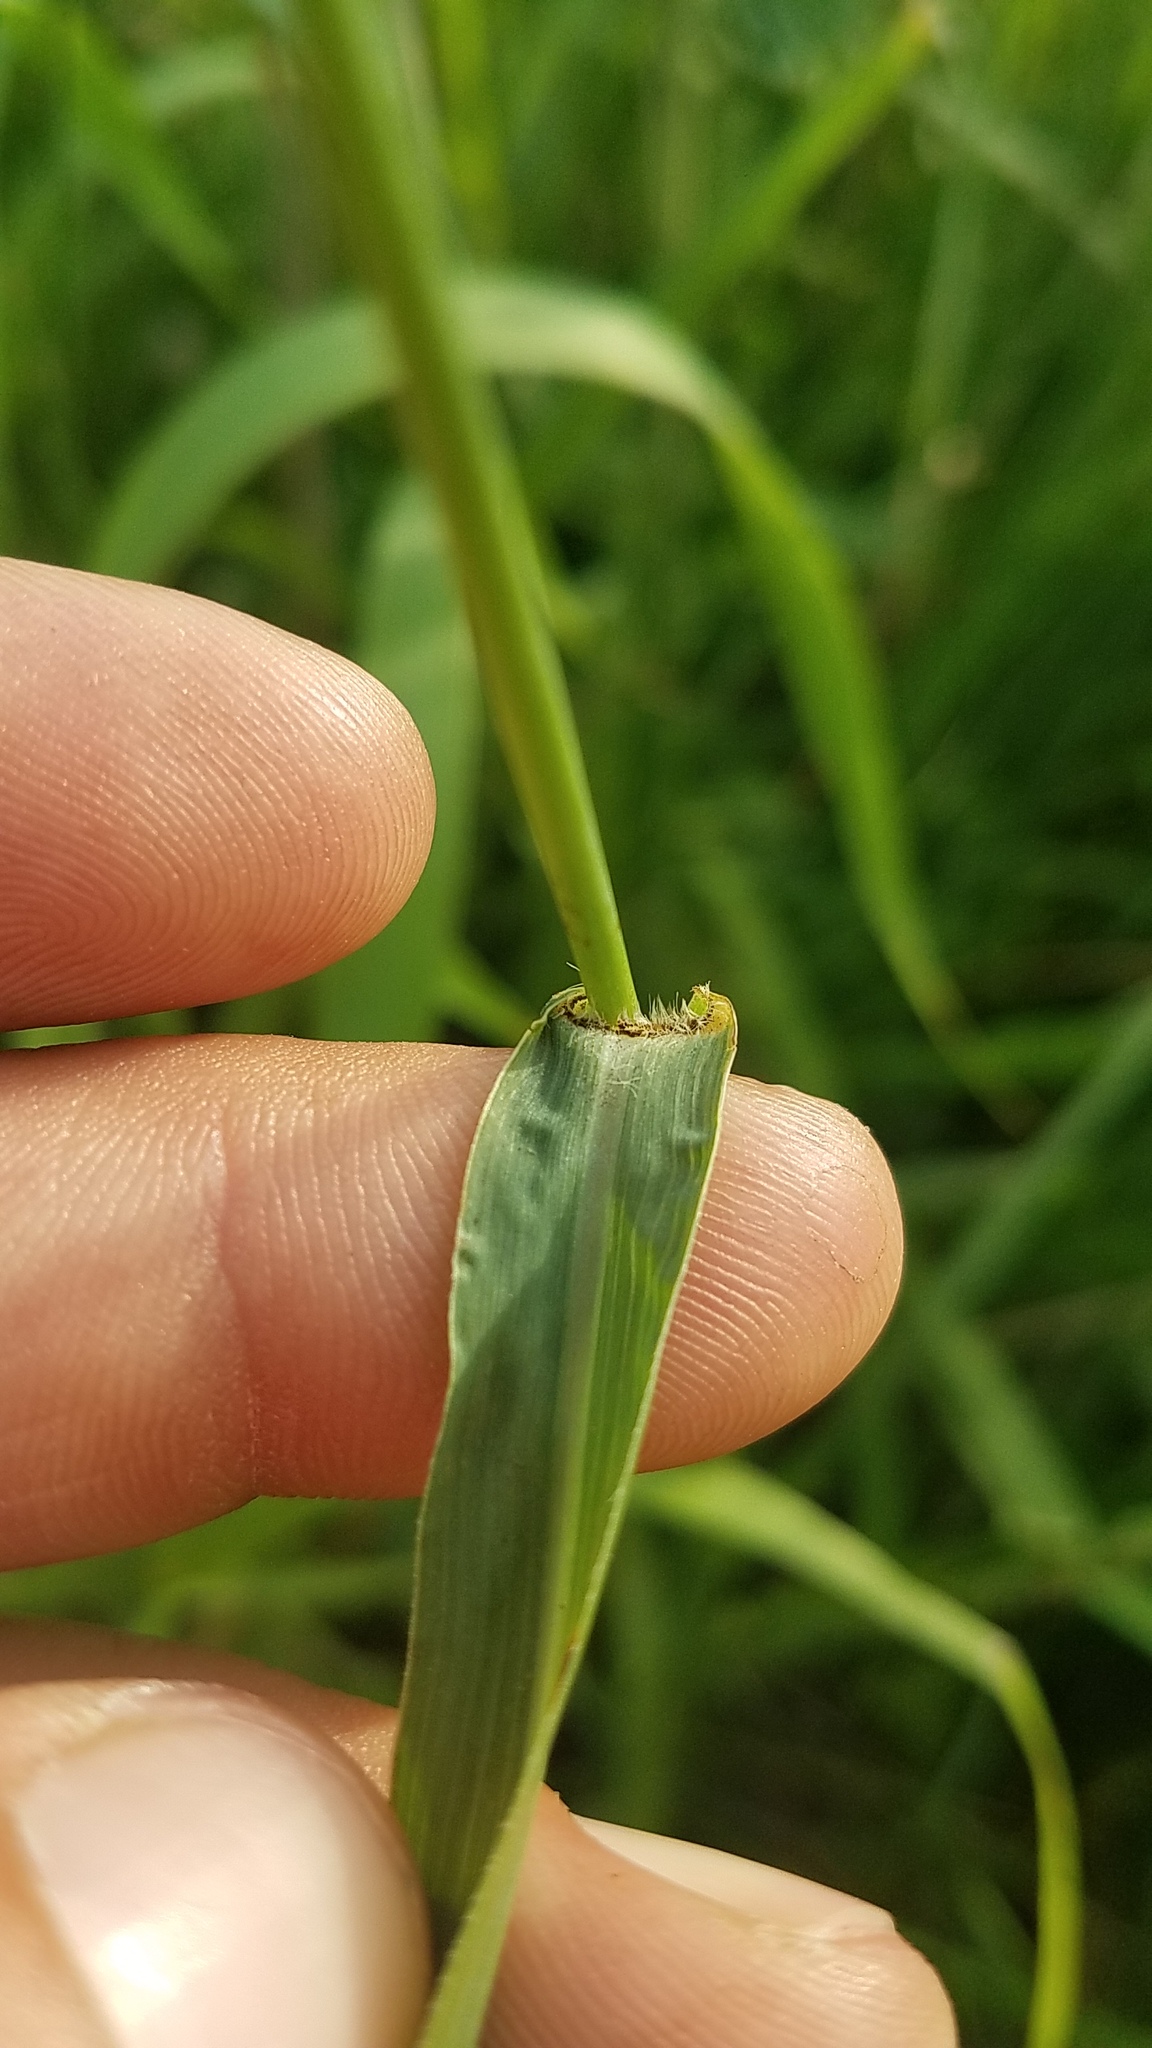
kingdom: Plantae
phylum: Tracheophyta
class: Liliopsida
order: Poales
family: Poaceae
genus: Panicum
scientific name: Panicum virgatum
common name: Switchgrass
